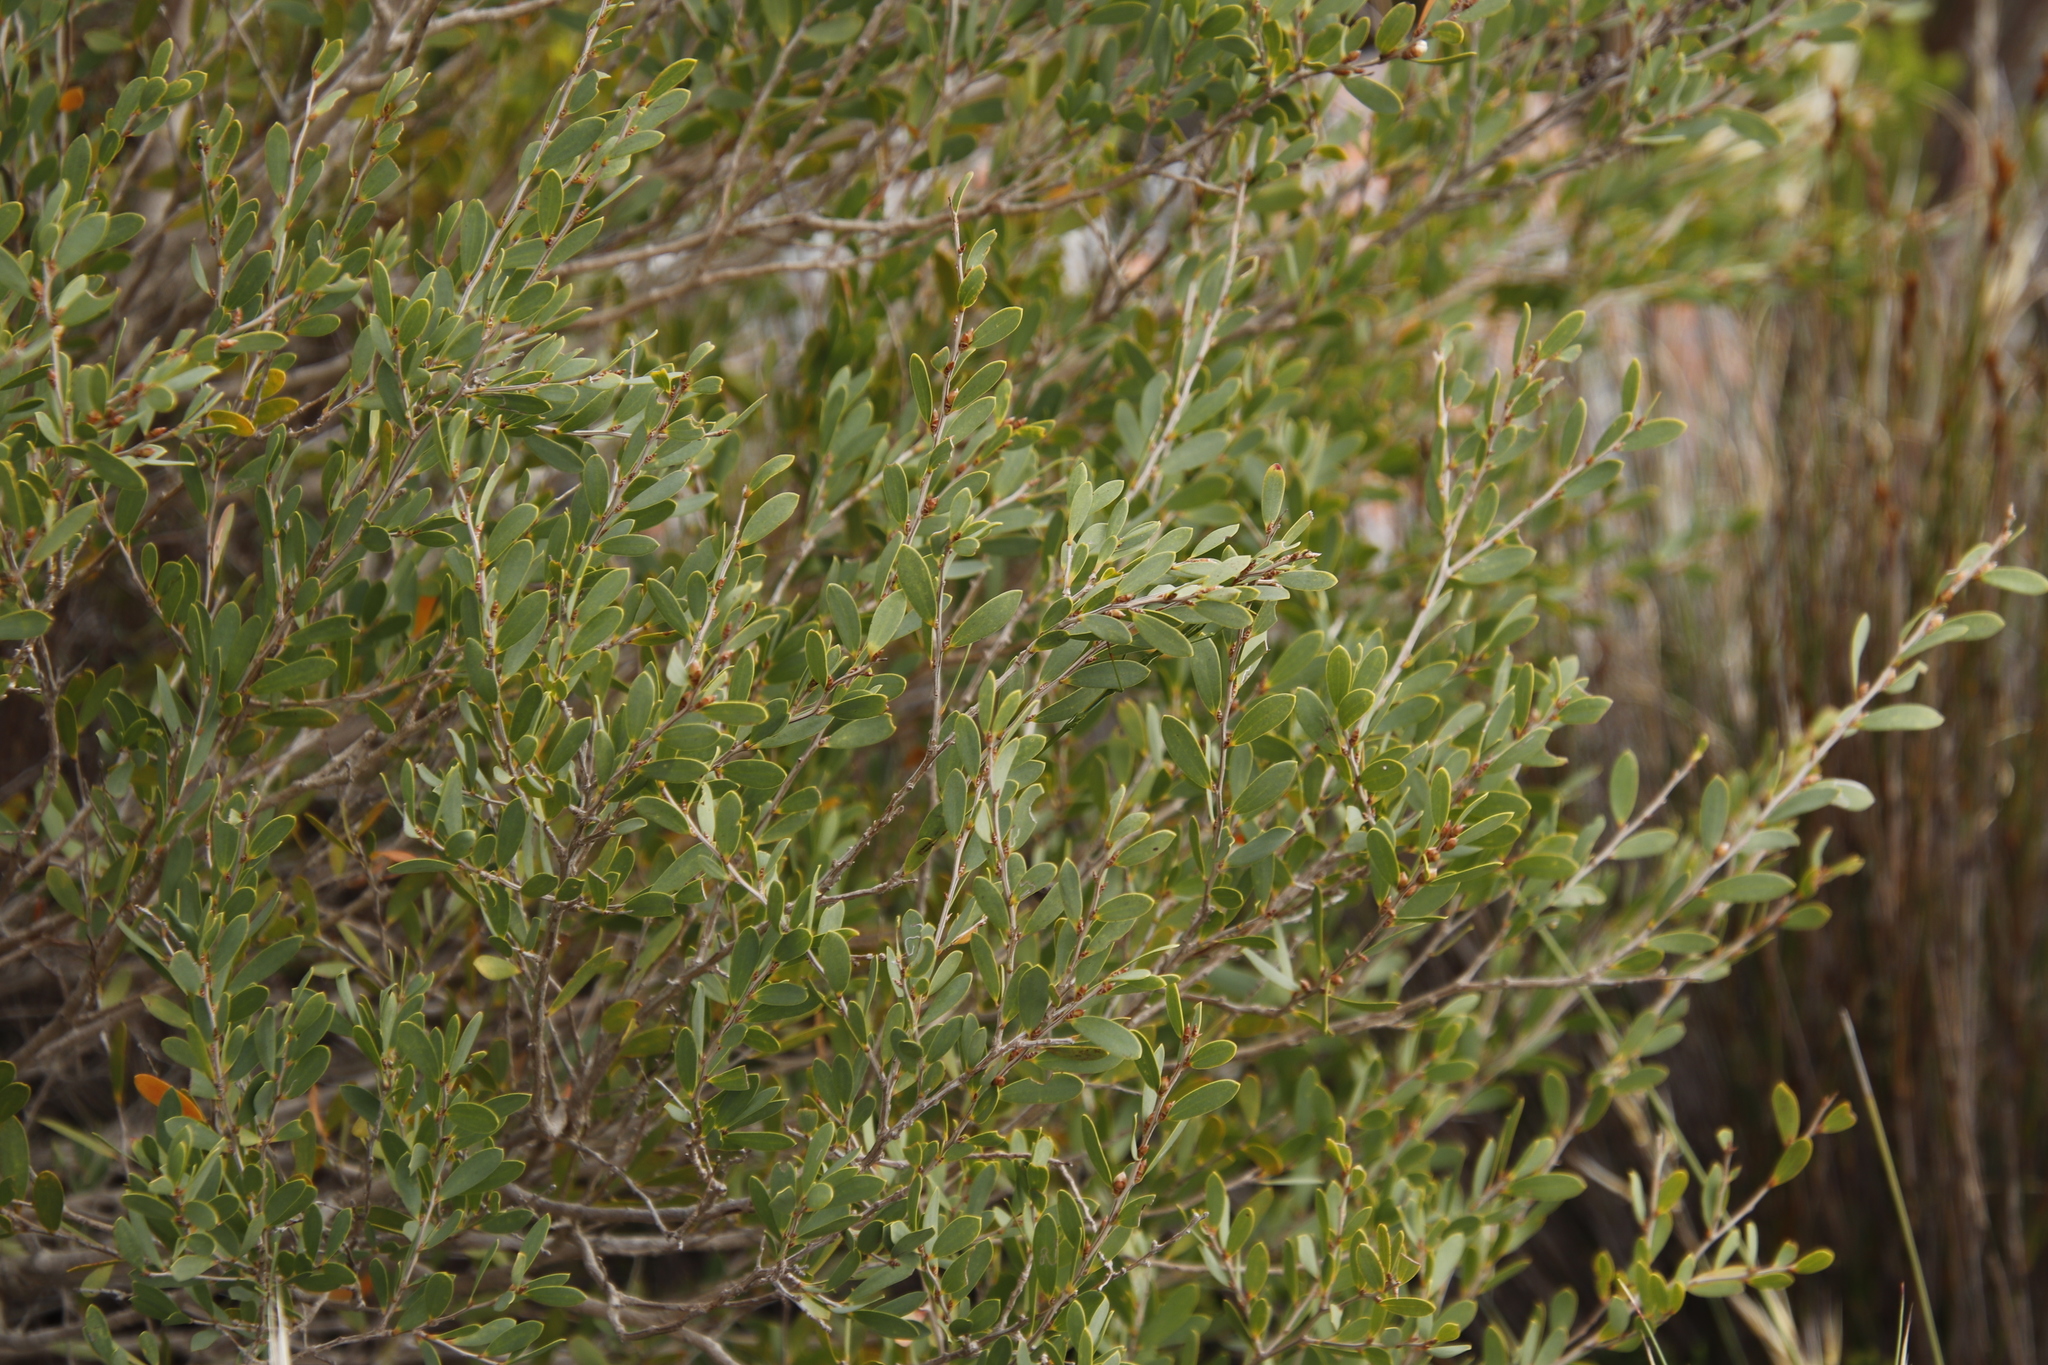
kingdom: Plantae
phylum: Tracheophyta
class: Magnoliopsida
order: Myrtales
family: Myrtaceae
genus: Leptospermum
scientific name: Leptospermum laevigatum
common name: Australian teatree
